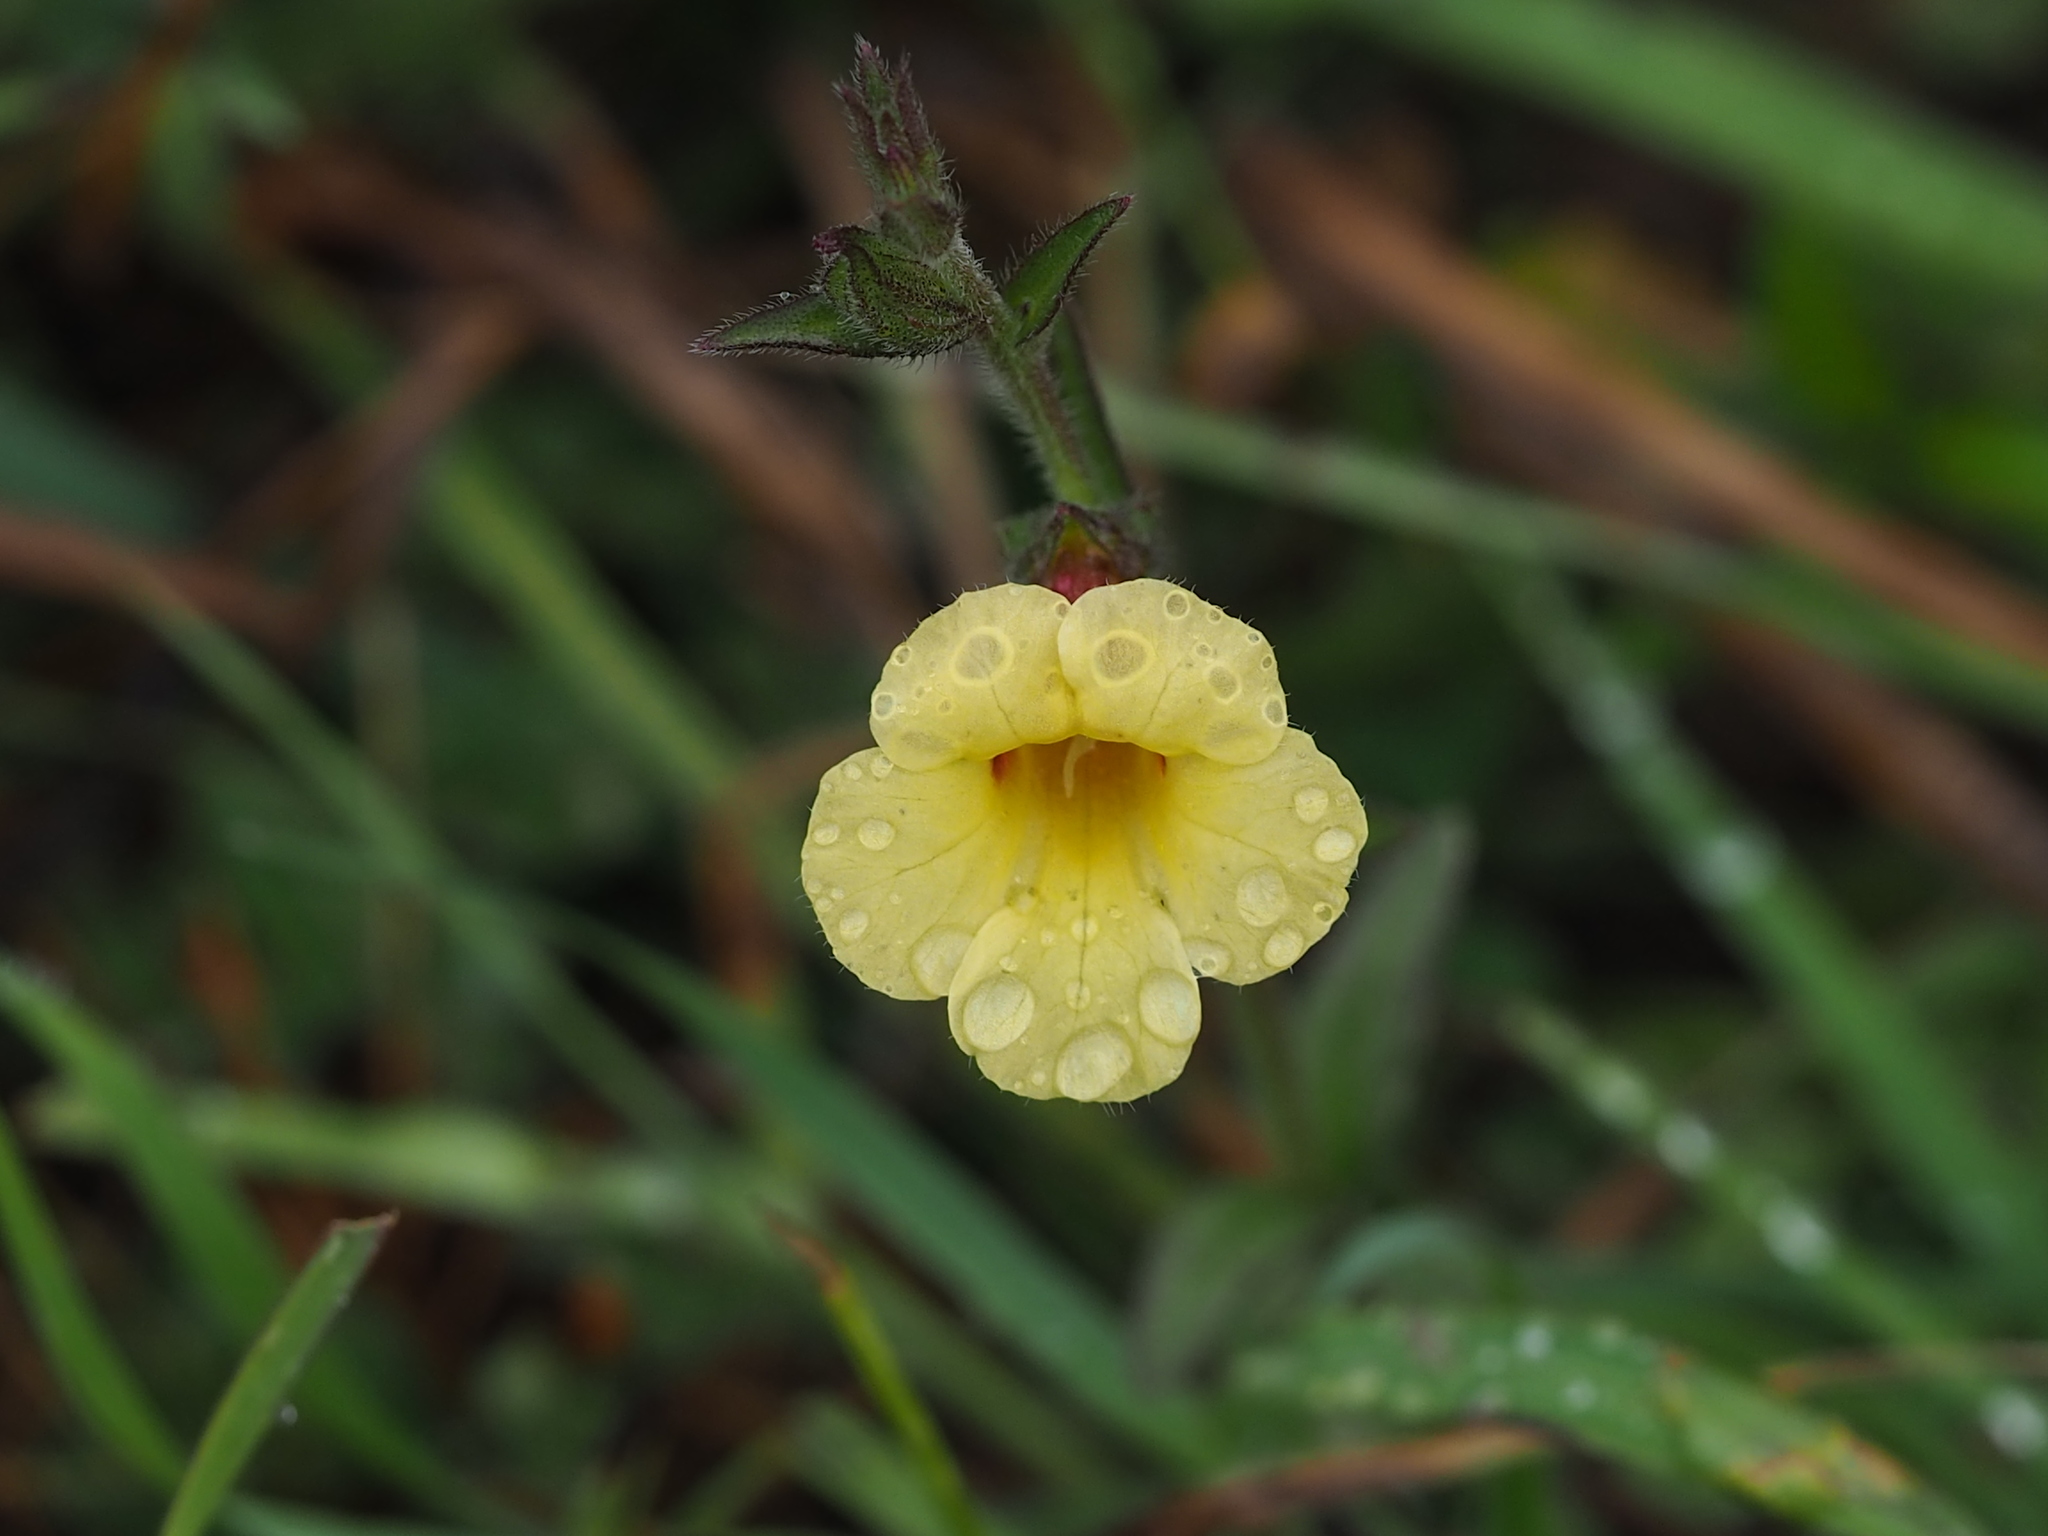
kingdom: Plantae
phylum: Tracheophyta
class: Magnoliopsida
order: Lamiales
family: Orobanchaceae
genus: Centranthera
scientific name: Centranthera cochinchinensis
